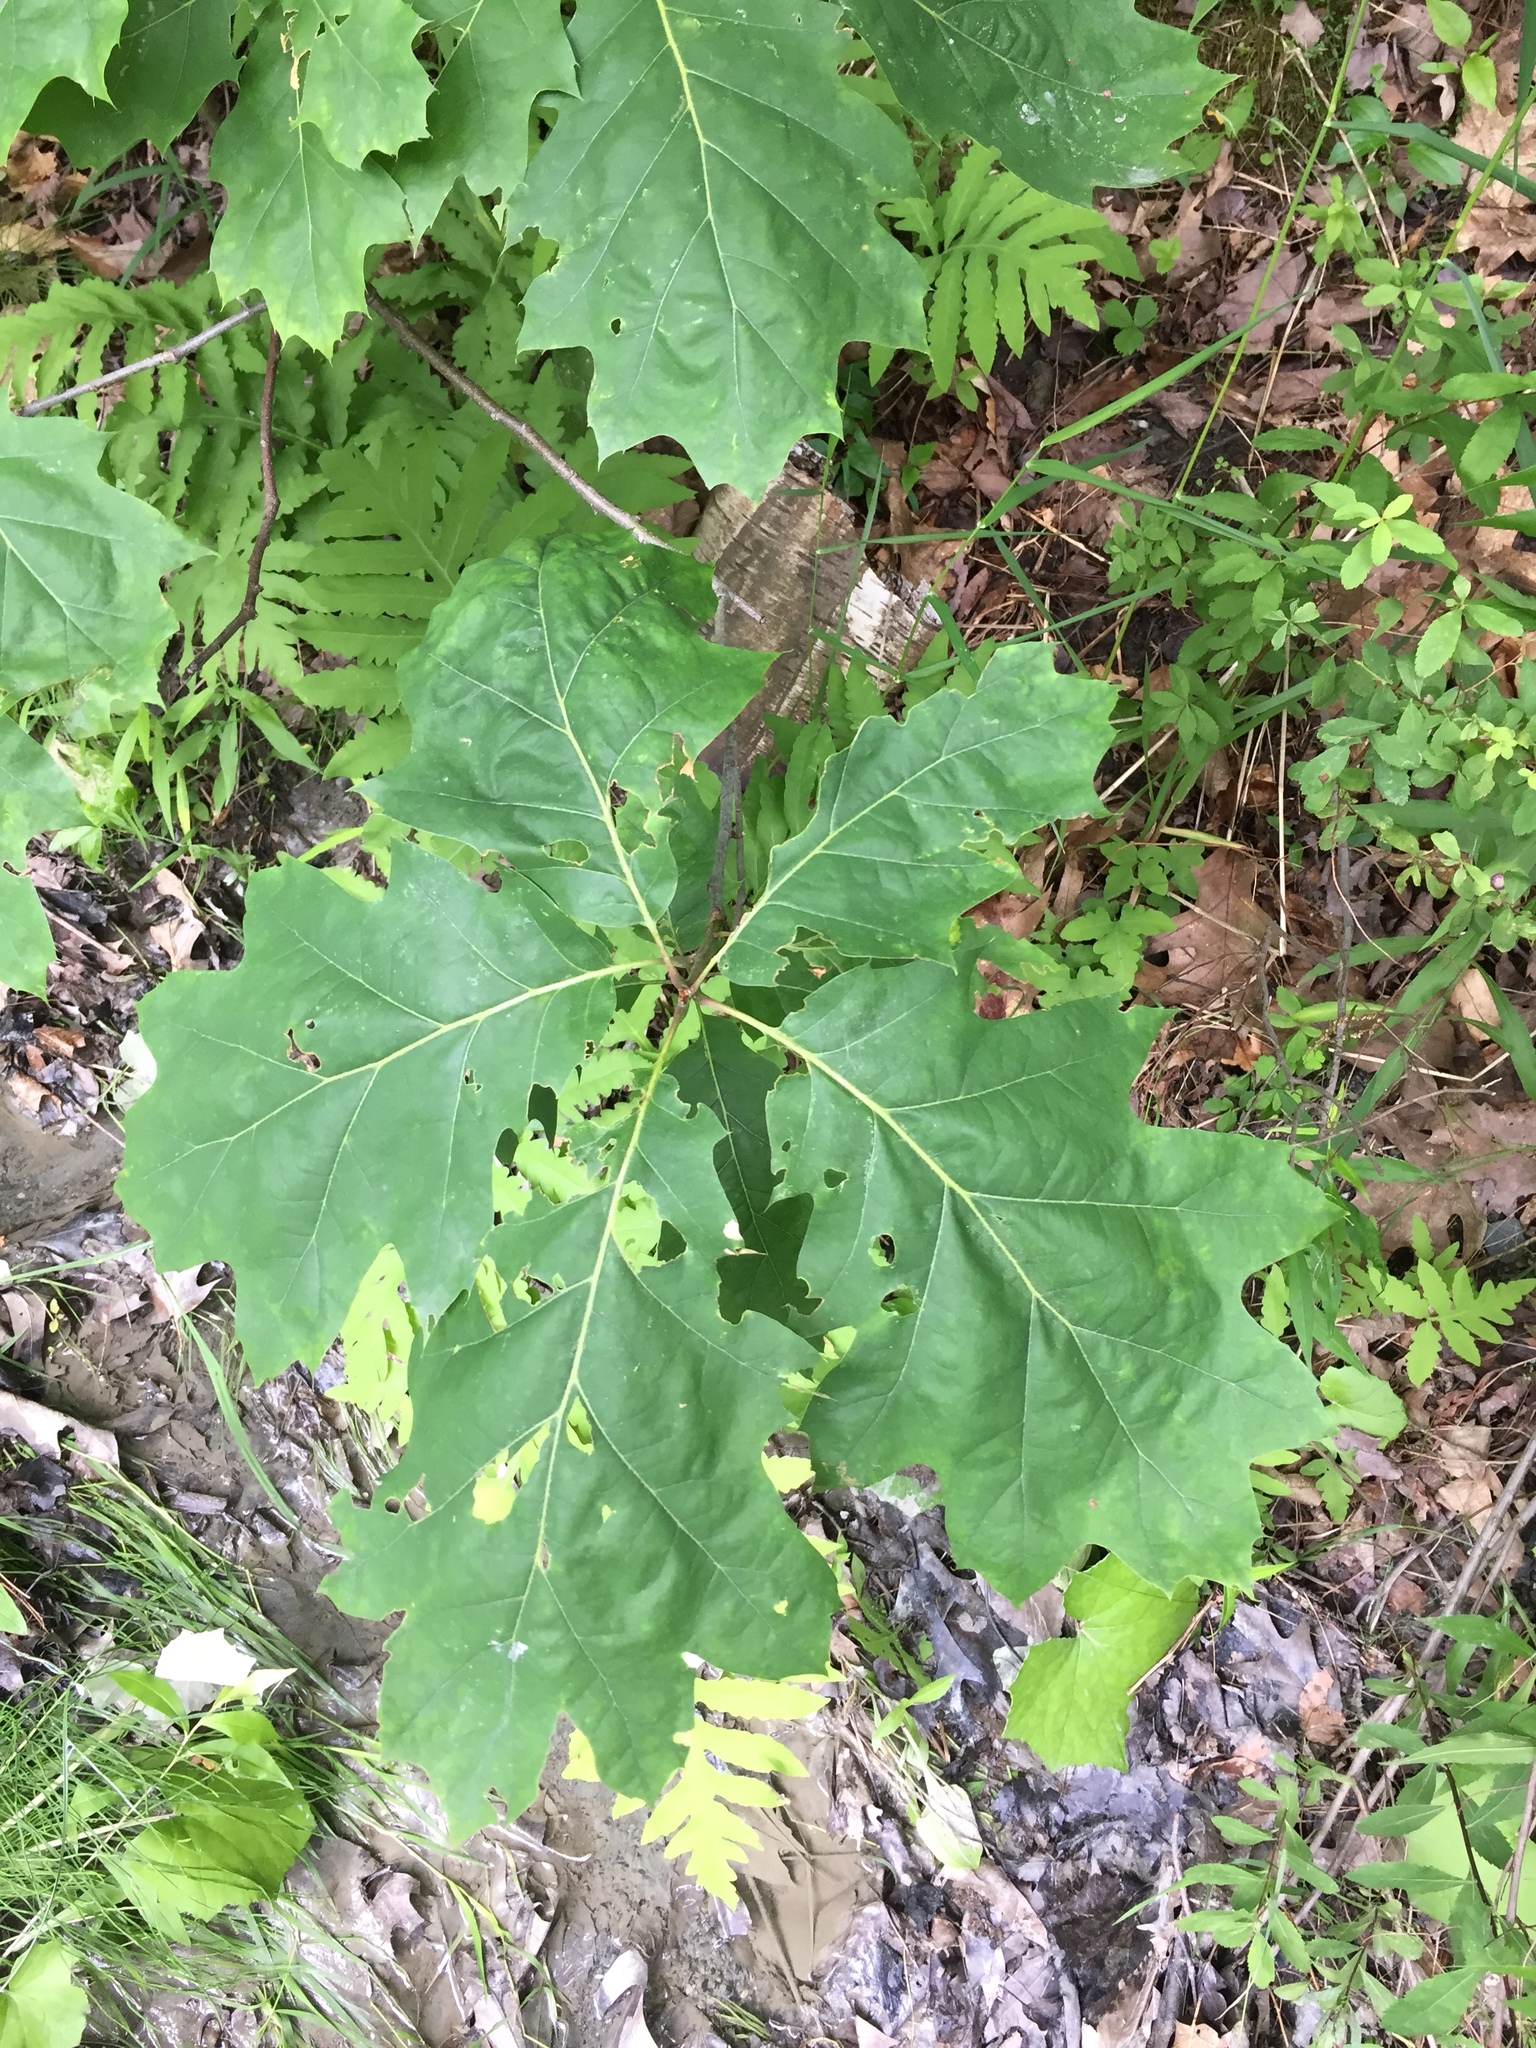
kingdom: Plantae
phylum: Tracheophyta
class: Magnoliopsida
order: Fagales
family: Fagaceae
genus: Quercus
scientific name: Quercus rubra
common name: Red oak
